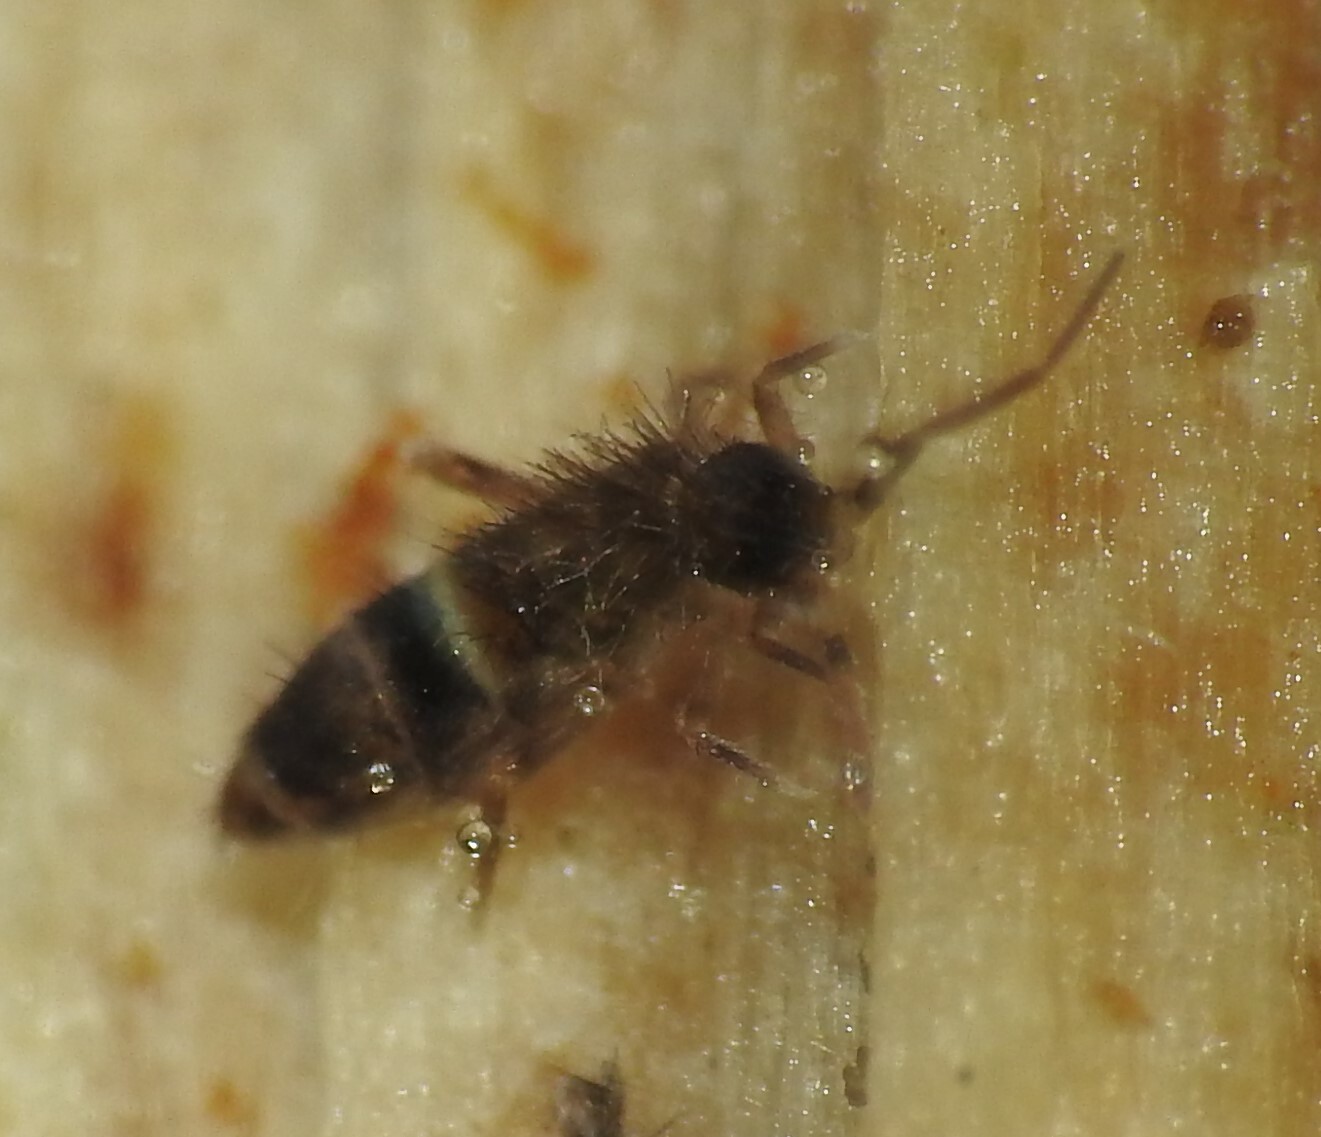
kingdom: Animalia
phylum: Arthropoda
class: Collembola
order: Entomobryomorpha
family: Orchesellidae
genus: Orchesella
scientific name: Orchesella cincta
